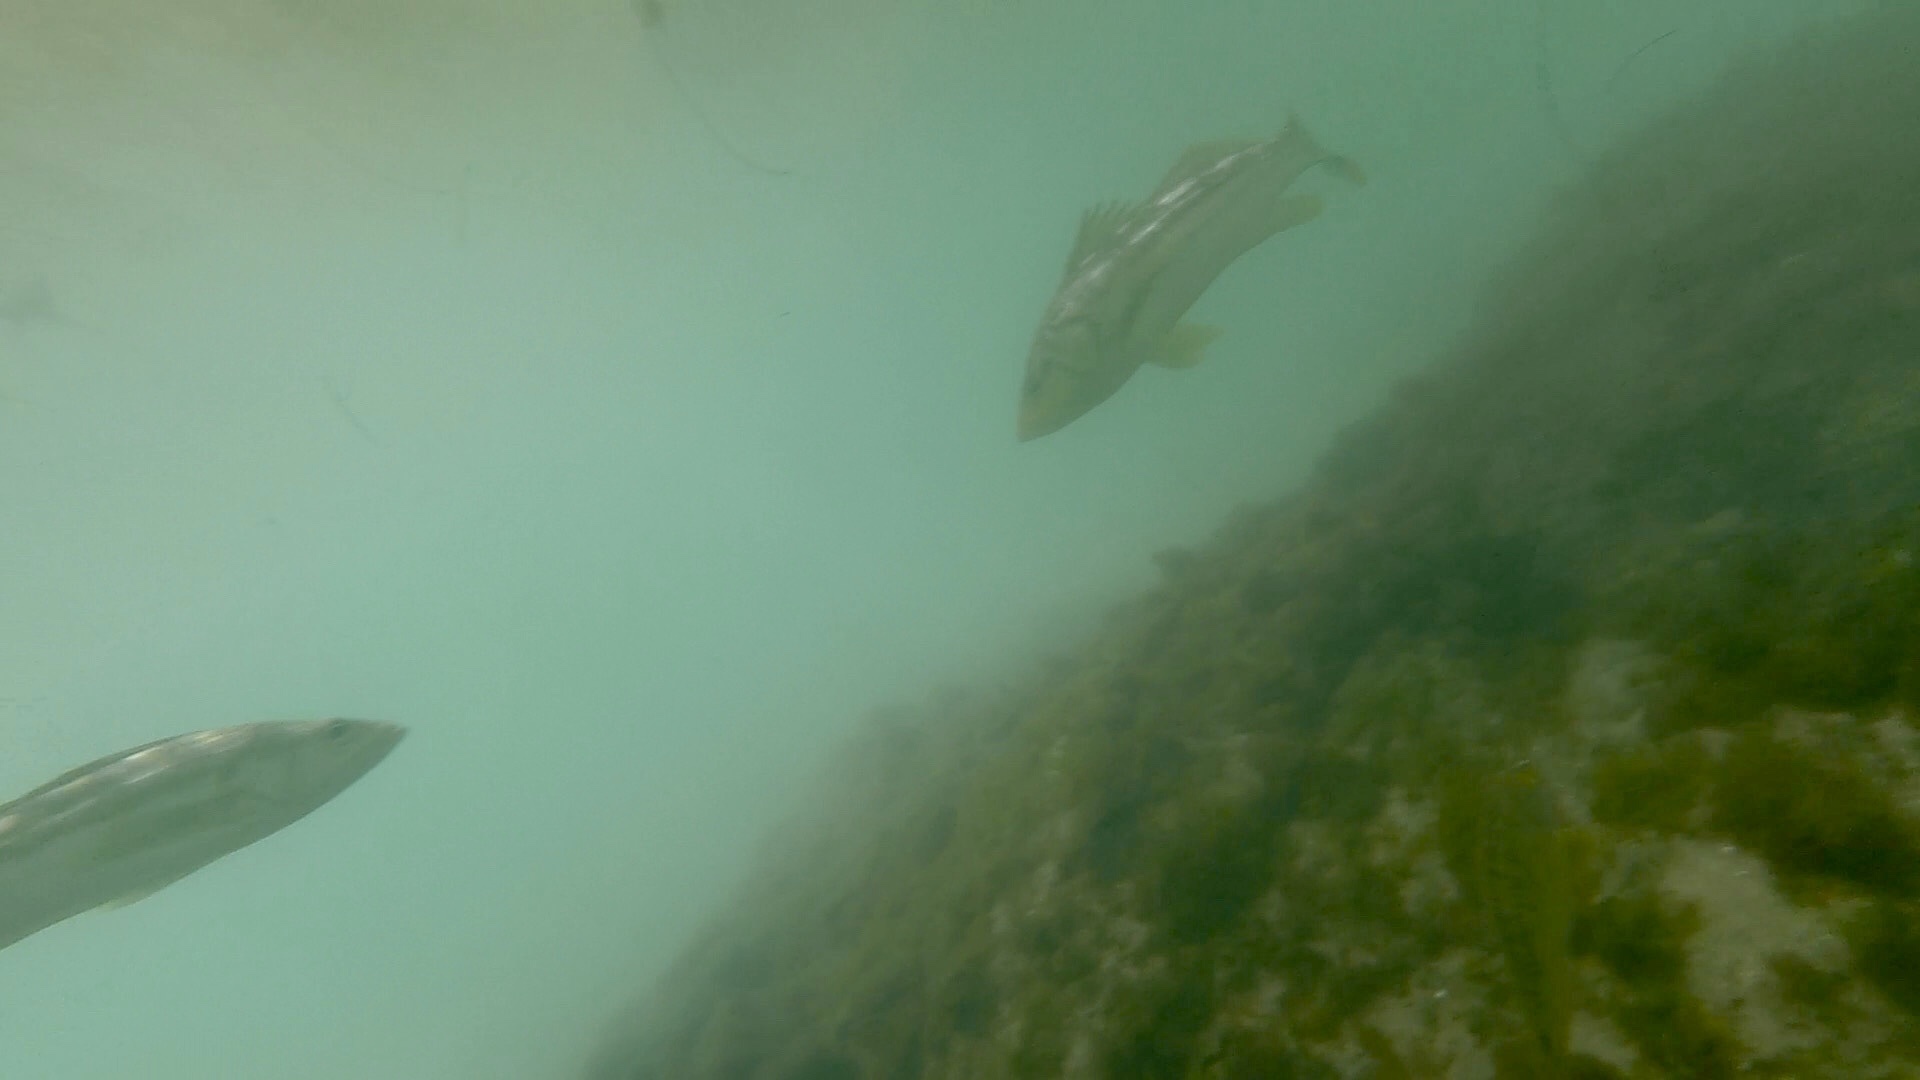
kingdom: Animalia
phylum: Chordata
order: Perciformes
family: Serranidae
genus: Paralabrax
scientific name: Paralabrax clathratus
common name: Kelp bass
